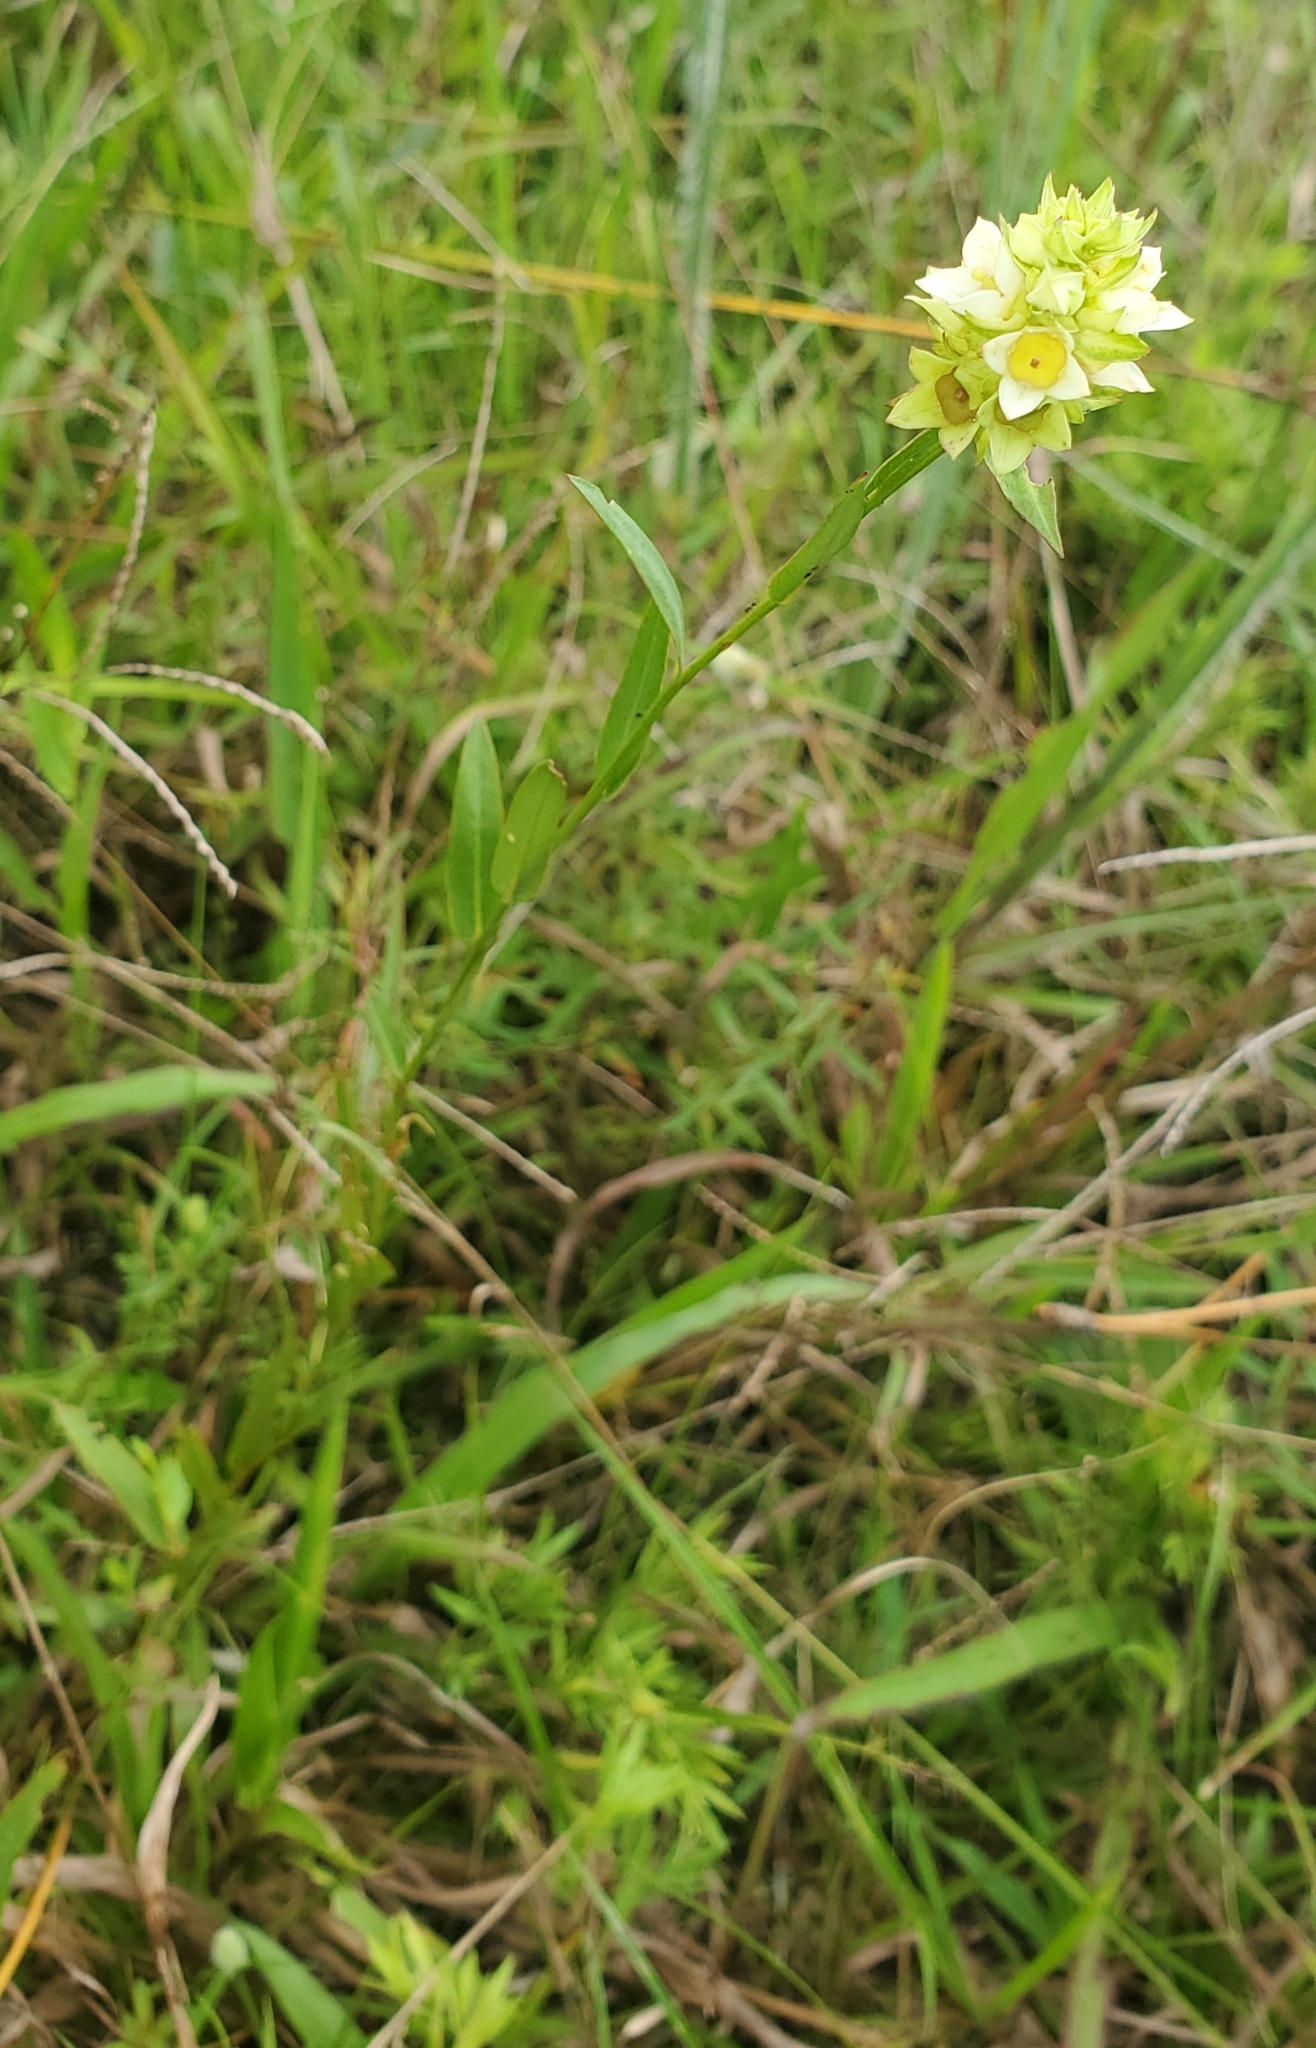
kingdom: Plantae
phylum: Tracheophyta
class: Magnoliopsida
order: Myrtales
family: Onagraceae
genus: Ludwigia
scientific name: Ludwigia suffruticosa
